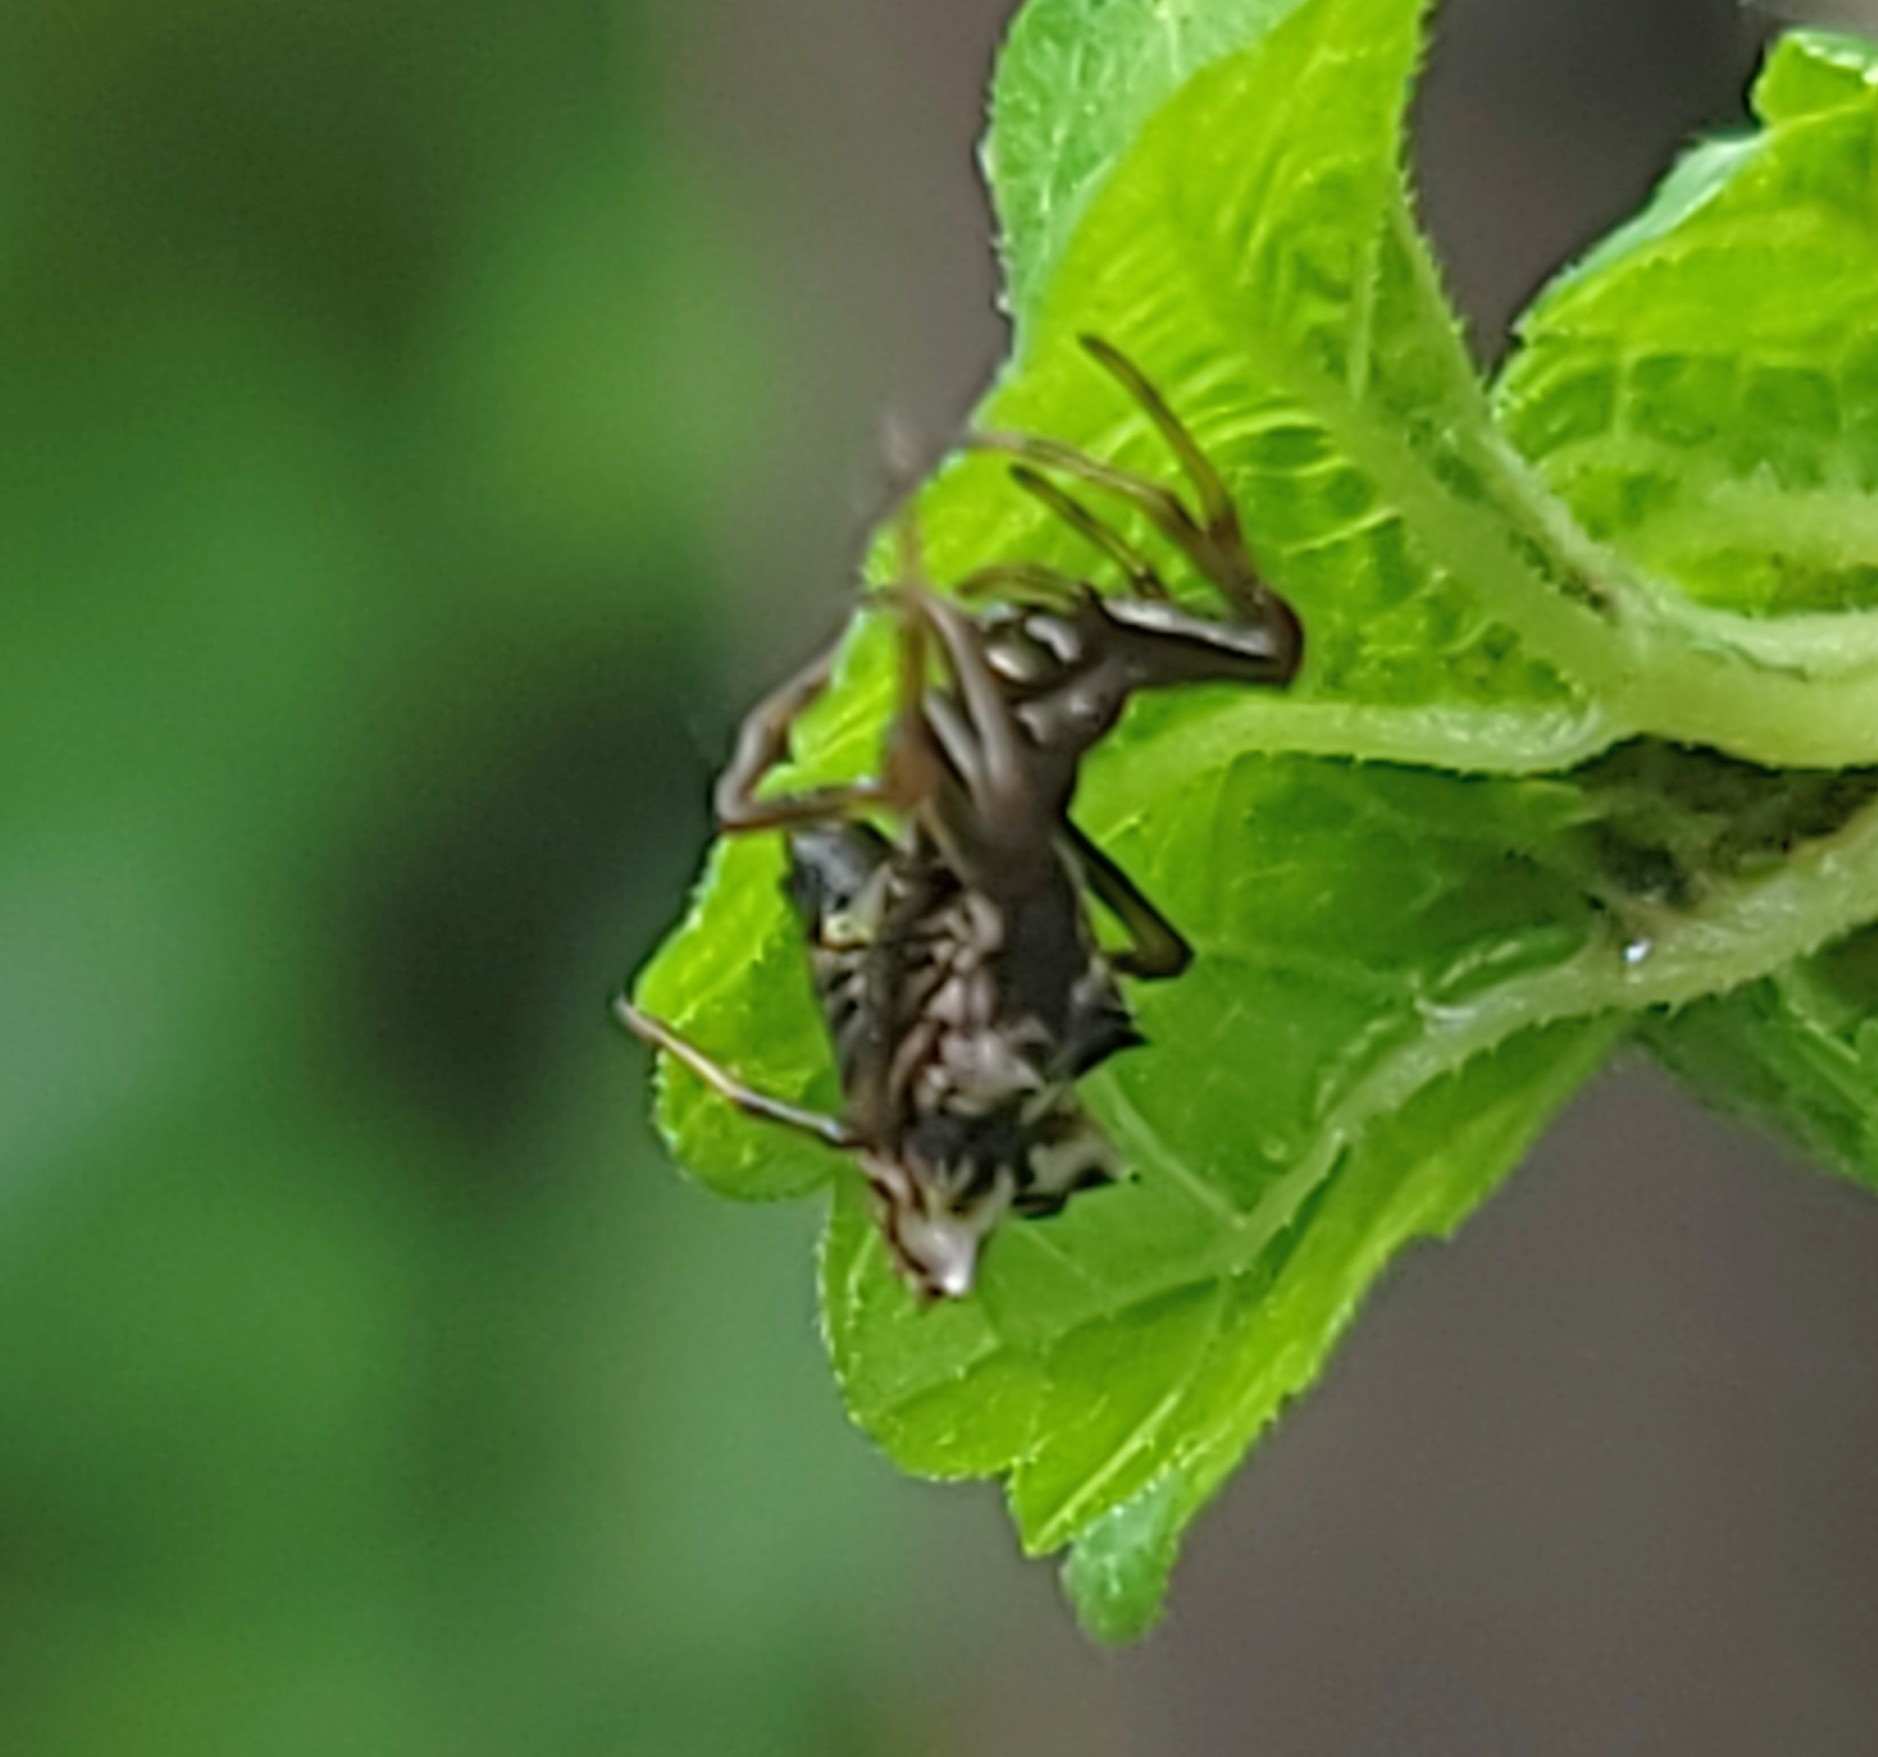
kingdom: Animalia
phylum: Arthropoda
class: Arachnida
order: Araneae
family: Araneidae
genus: Micrathena
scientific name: Micrathena gracilis
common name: Orb weavers
